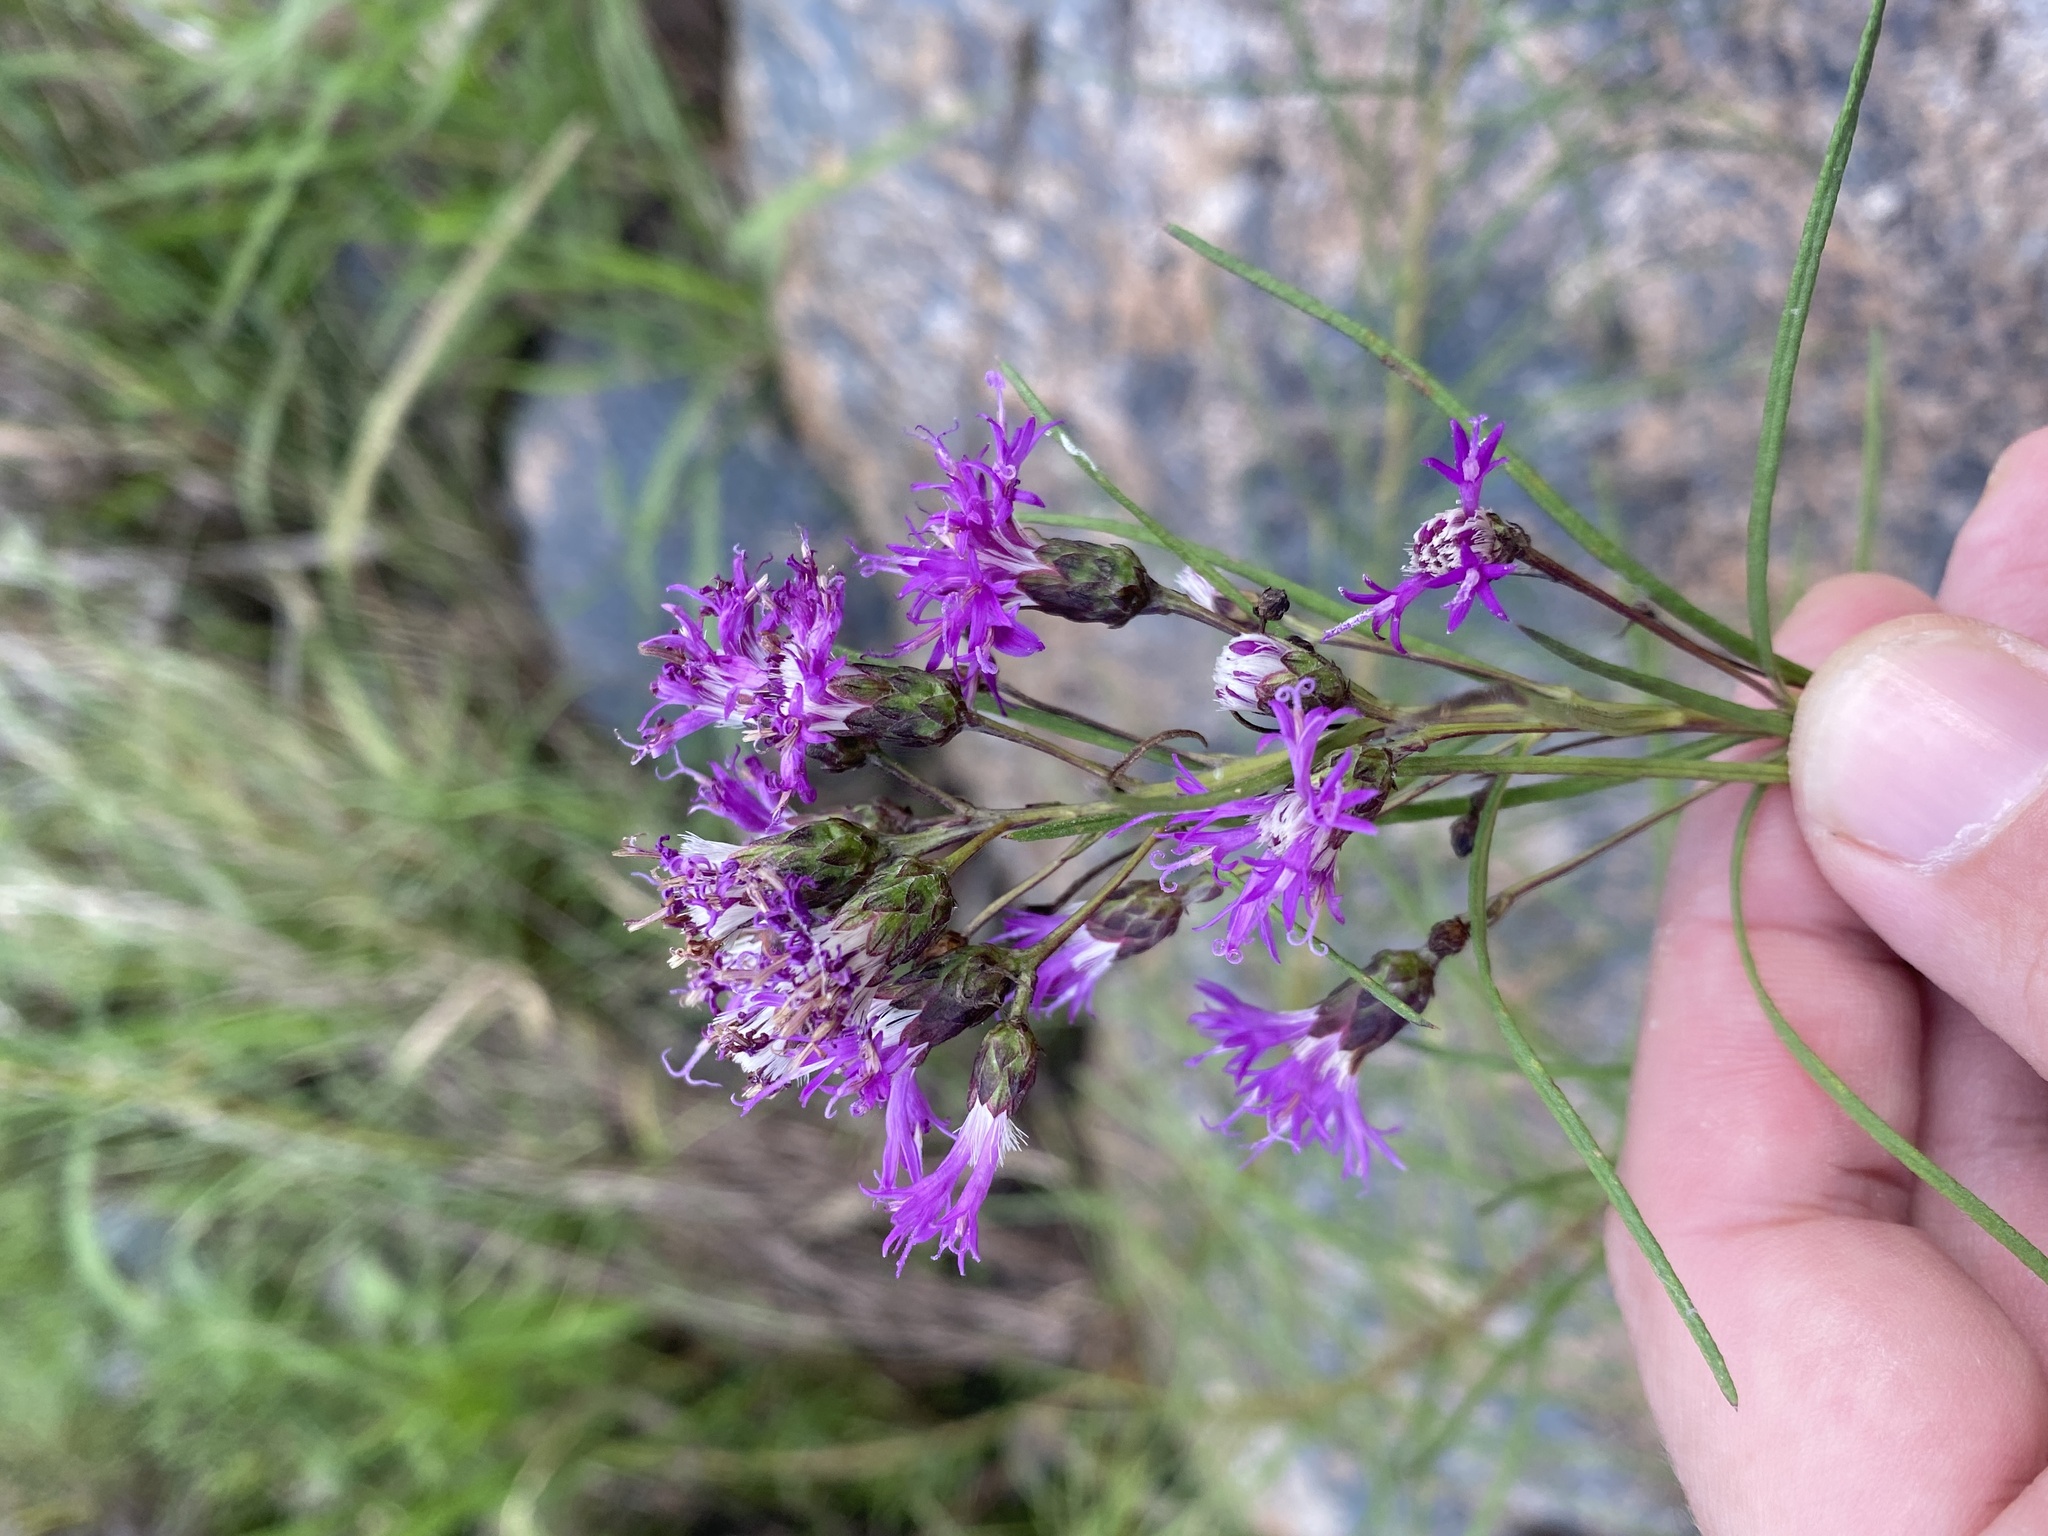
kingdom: Plantae
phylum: Tracheophyta
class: Magnoliopsida
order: Asterales
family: Asteraceae
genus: Vernonanthura
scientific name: Vernonanthura nudiflora
